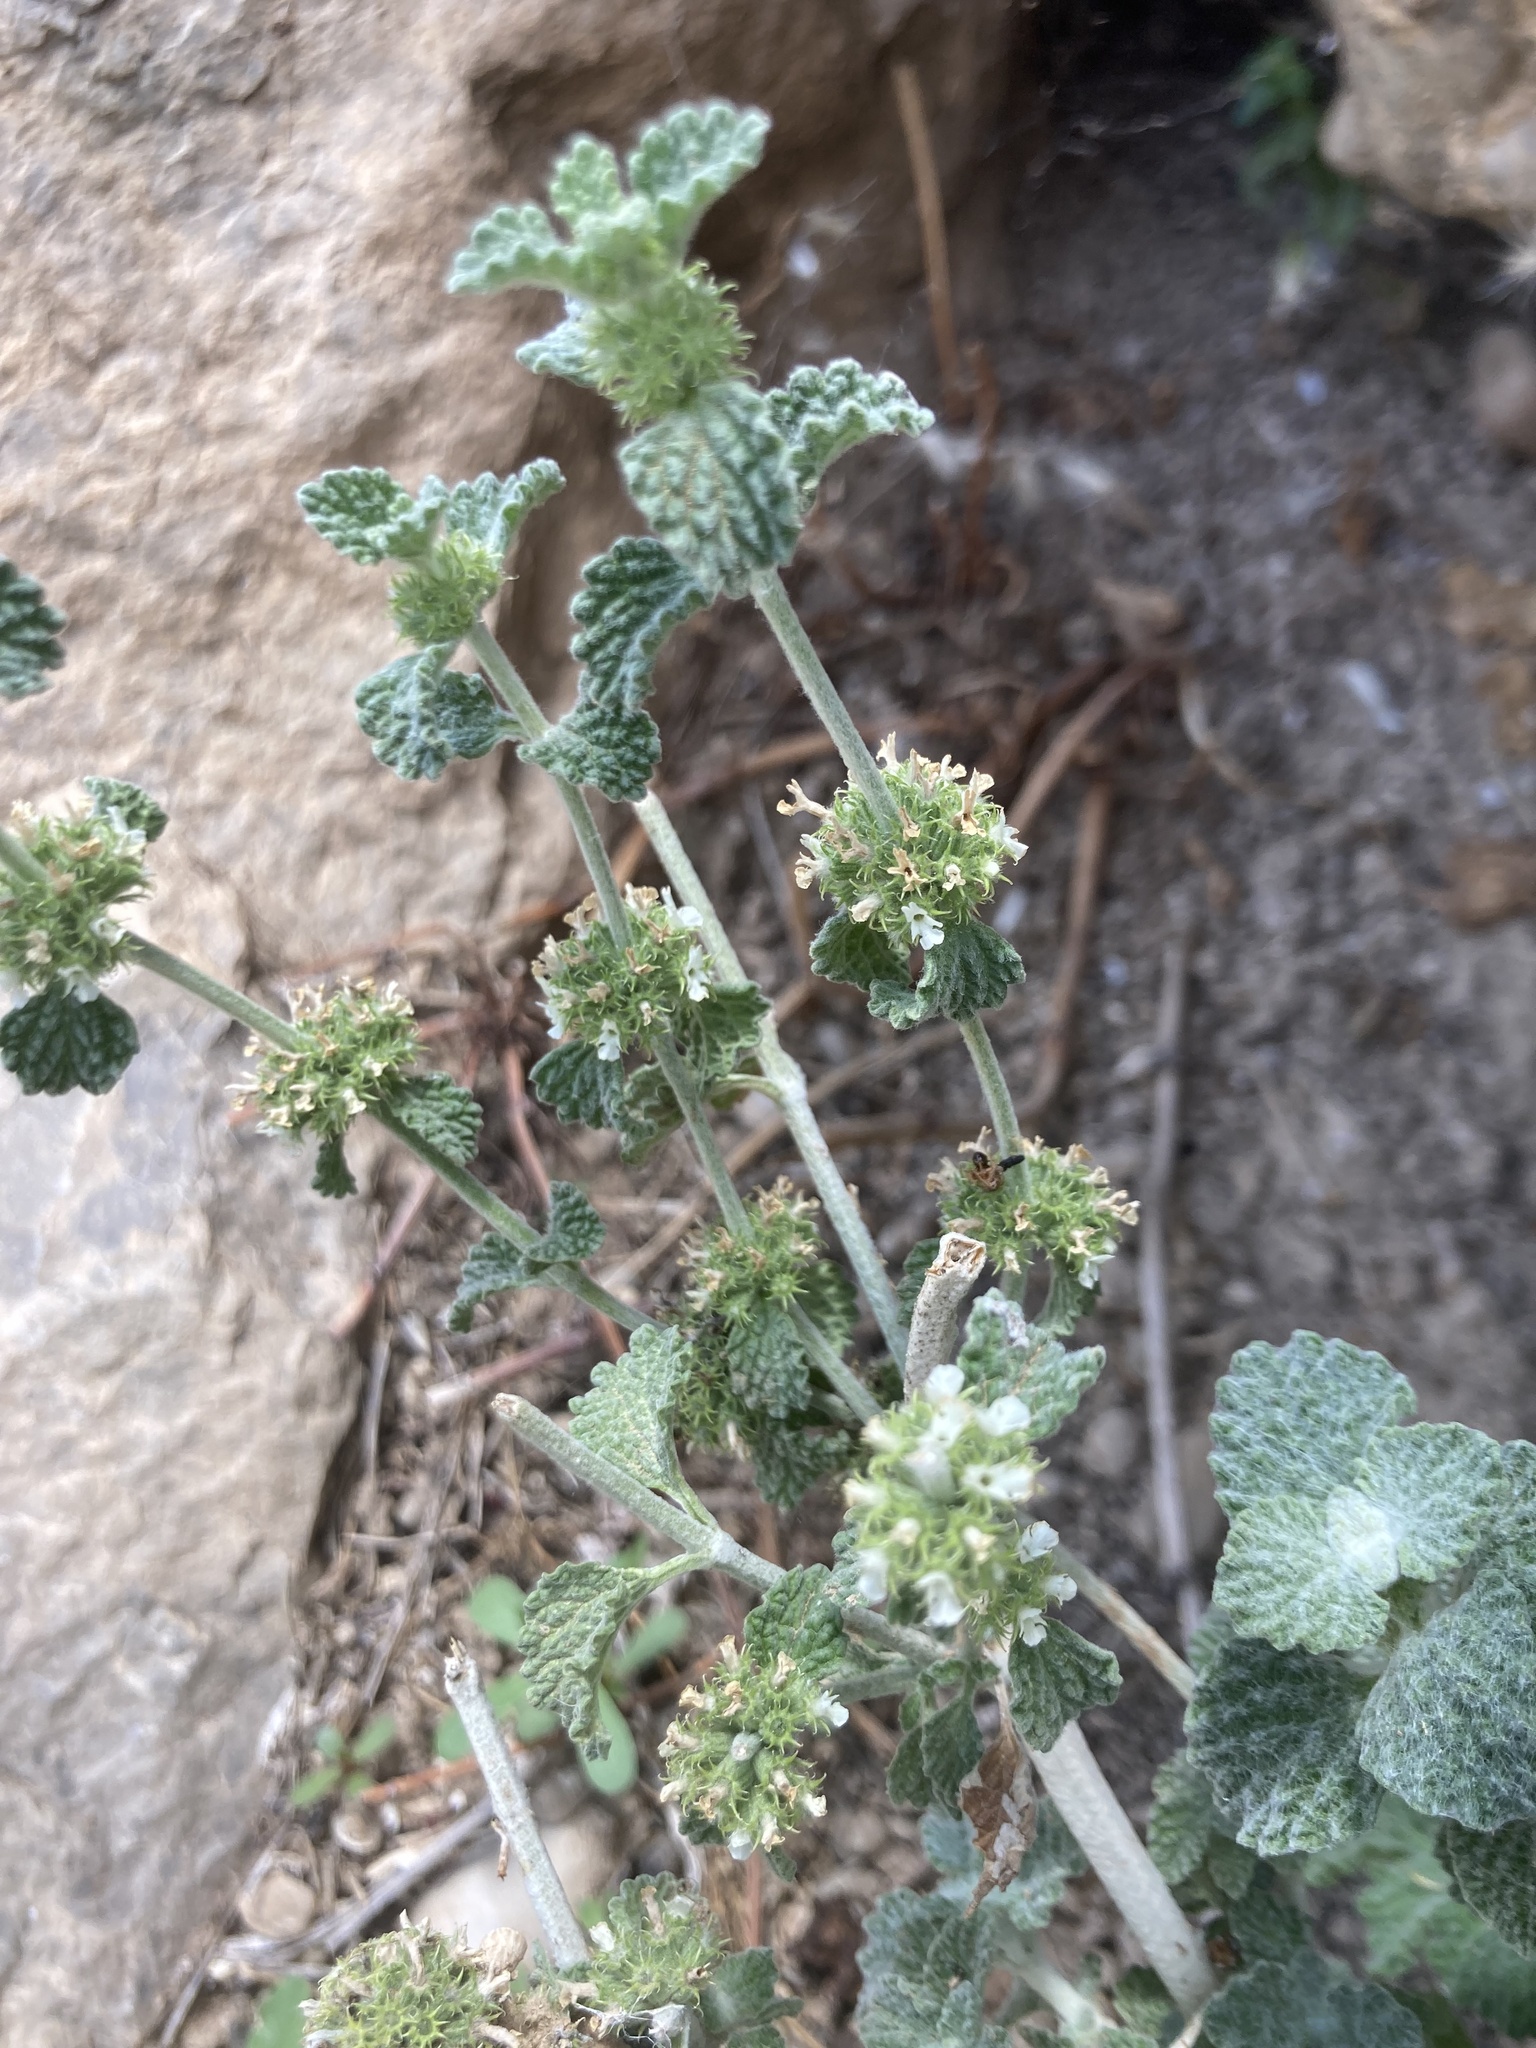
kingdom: Plantae
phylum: Tracheophyta
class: Magnoliopsida
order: Lamiales
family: Lamiaceae
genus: Marrubium
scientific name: Marrubium vulgare
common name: Horehound
